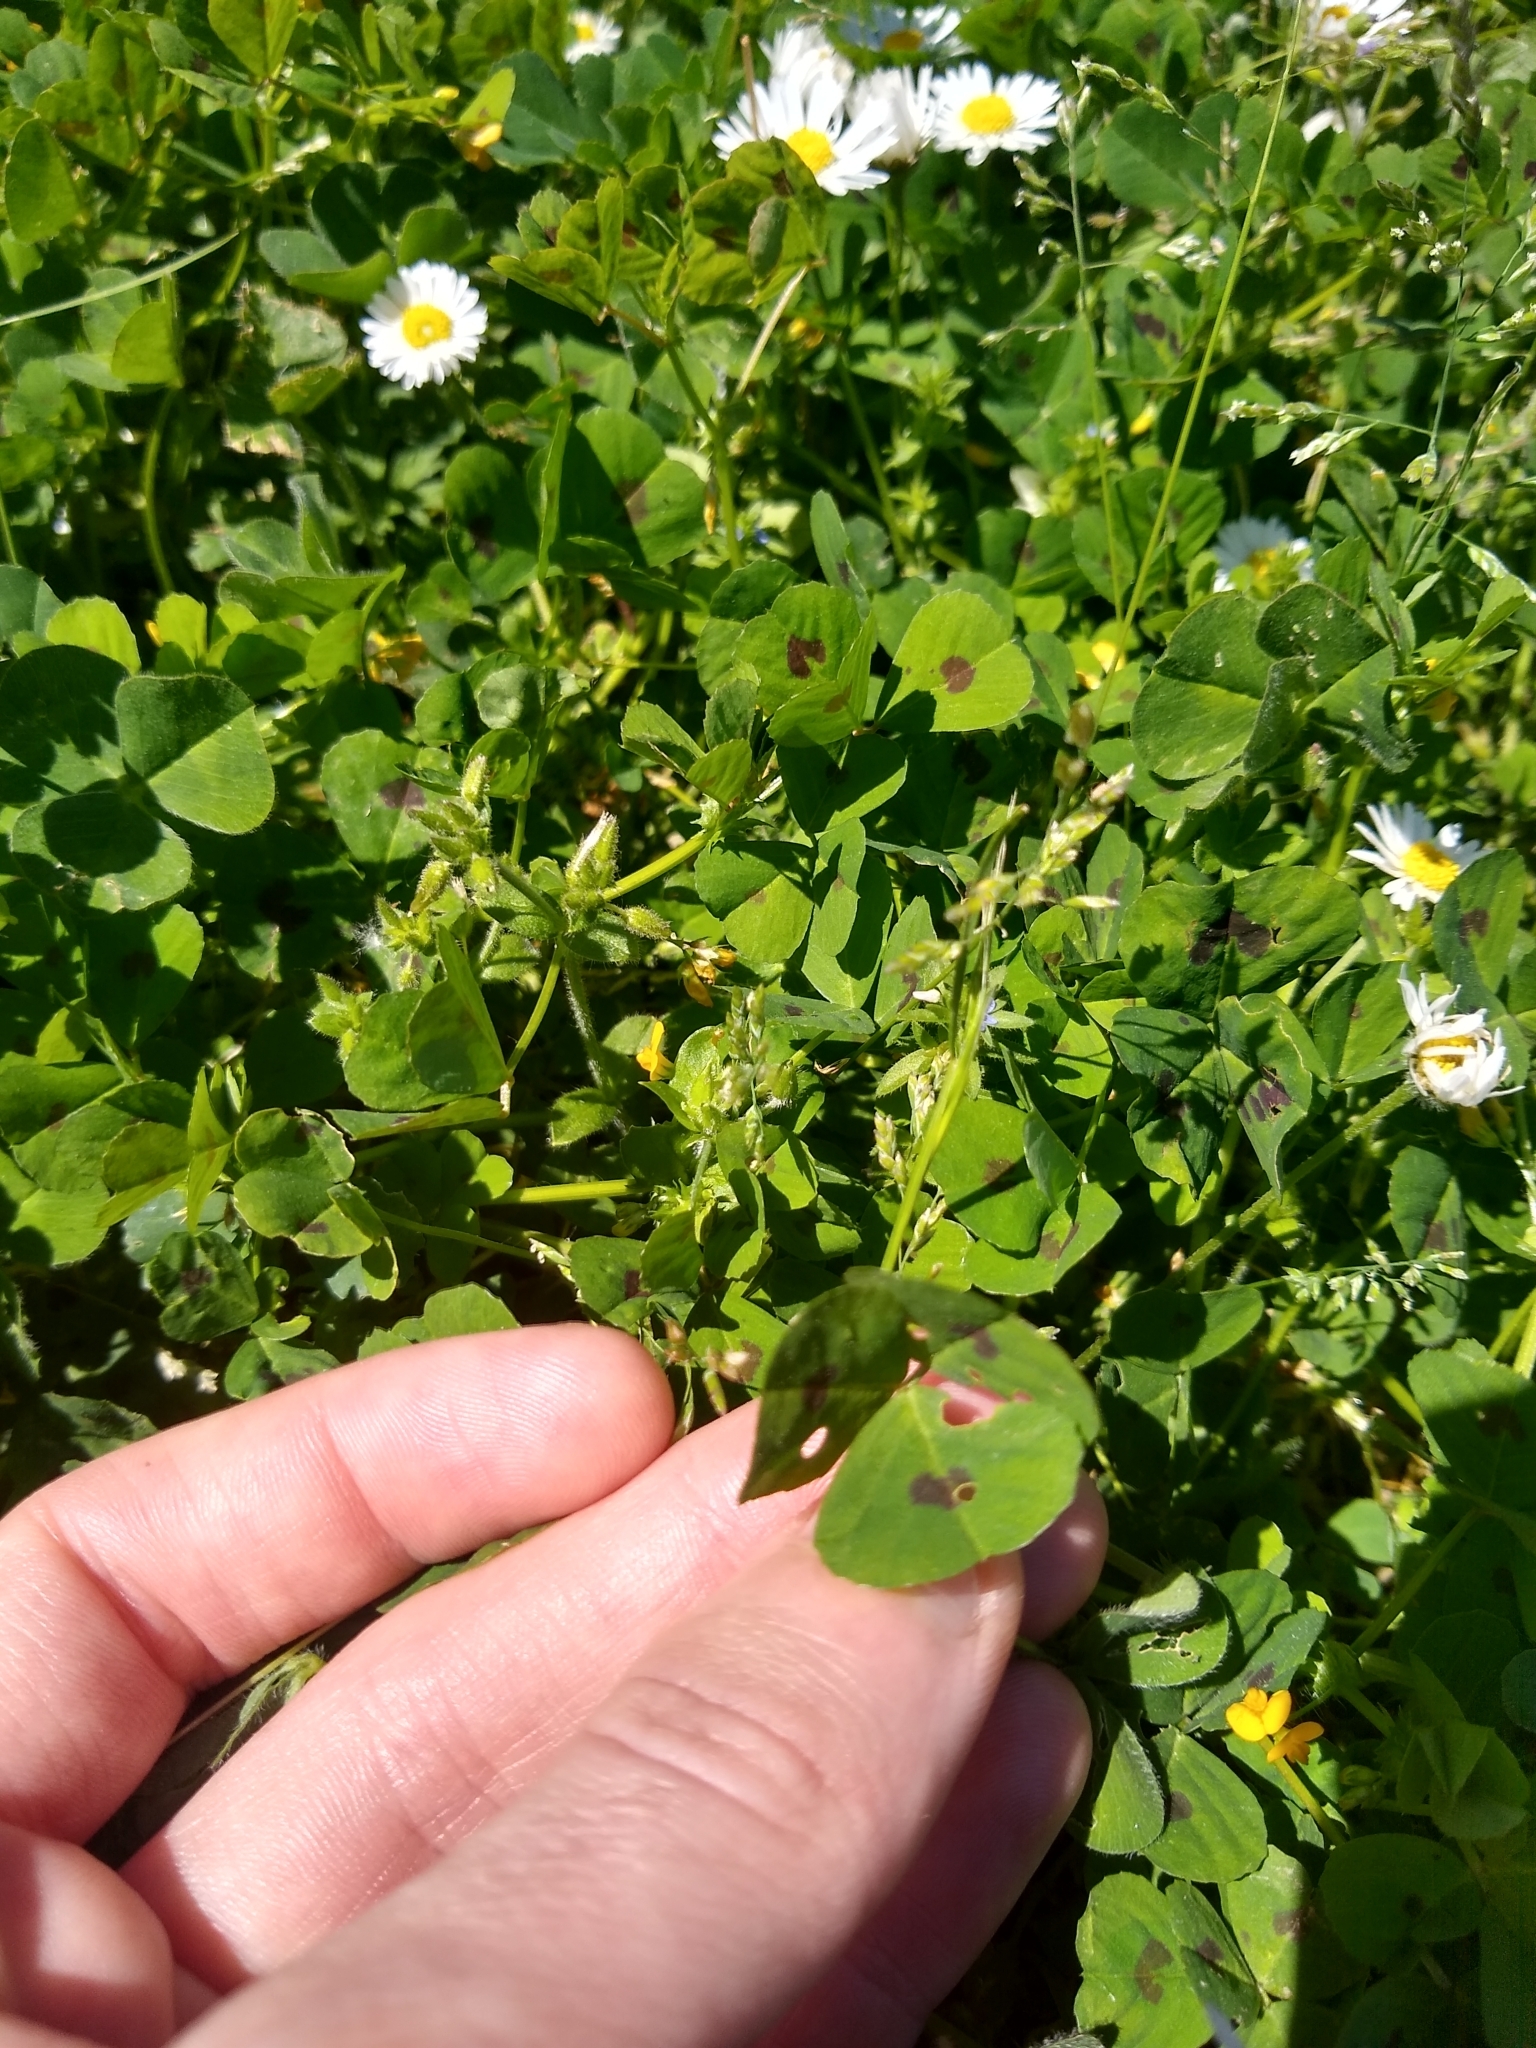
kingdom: Plantae
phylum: Tracheophyta
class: Magnoliopsida
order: Fabales
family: Fabaceae
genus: Medicago
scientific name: Medicago arabica
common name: Spotted medick
